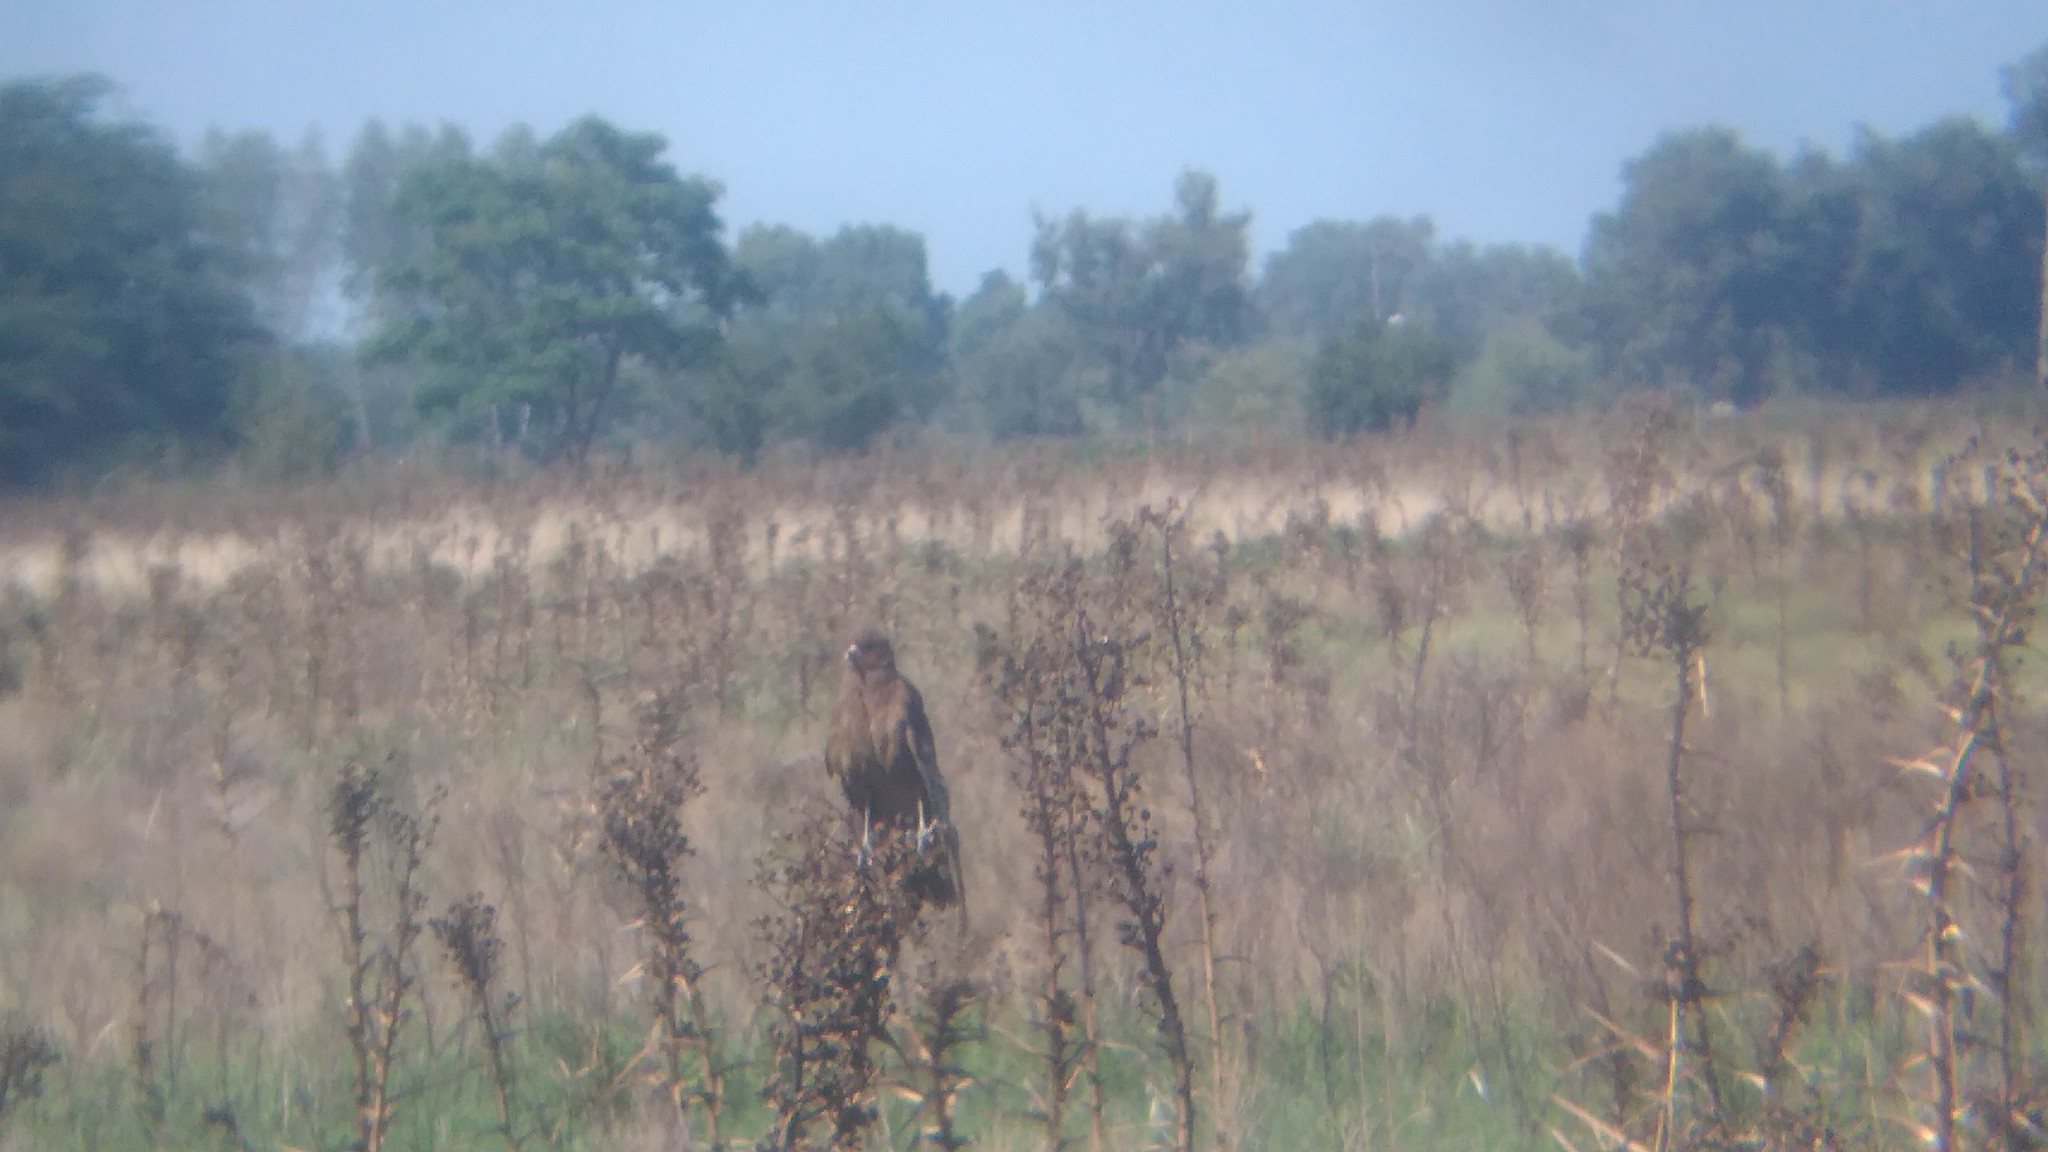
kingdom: Animalia
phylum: Chordata
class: Aves
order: Falconiformes
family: Falconidae
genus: Daptrius
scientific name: Daptrius
